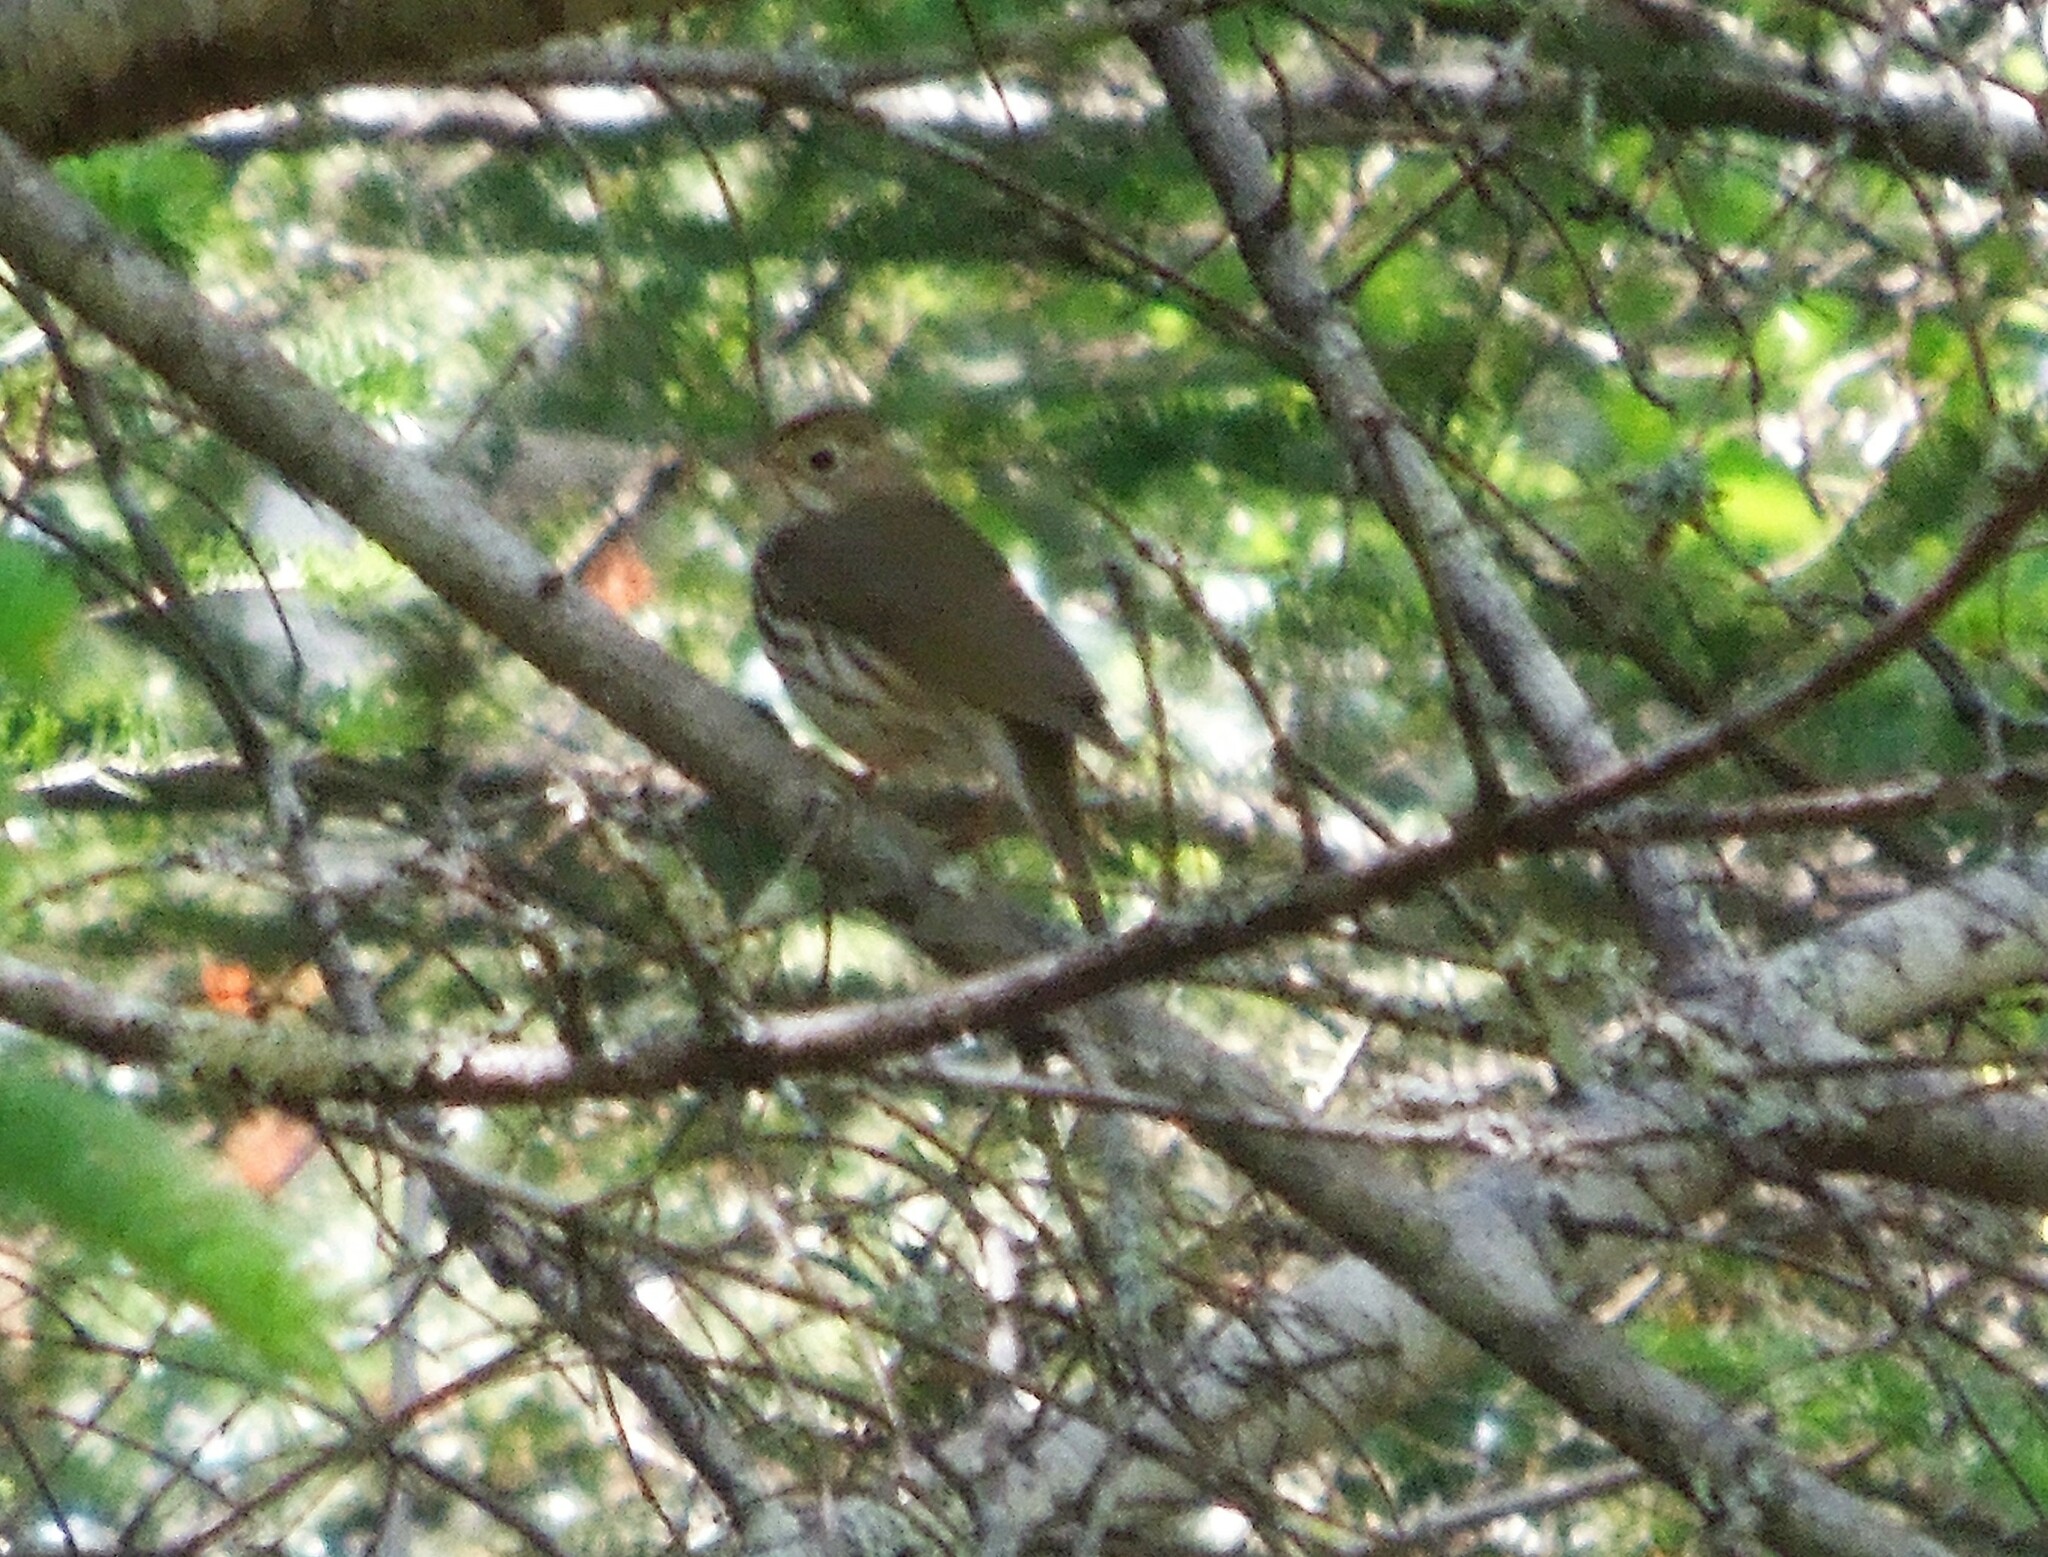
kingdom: Animalia
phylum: Chordata
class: Aves
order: Passeriformes
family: Parulidae
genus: Seiurus
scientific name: Seiurus aurocapilla
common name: Ovenbird
